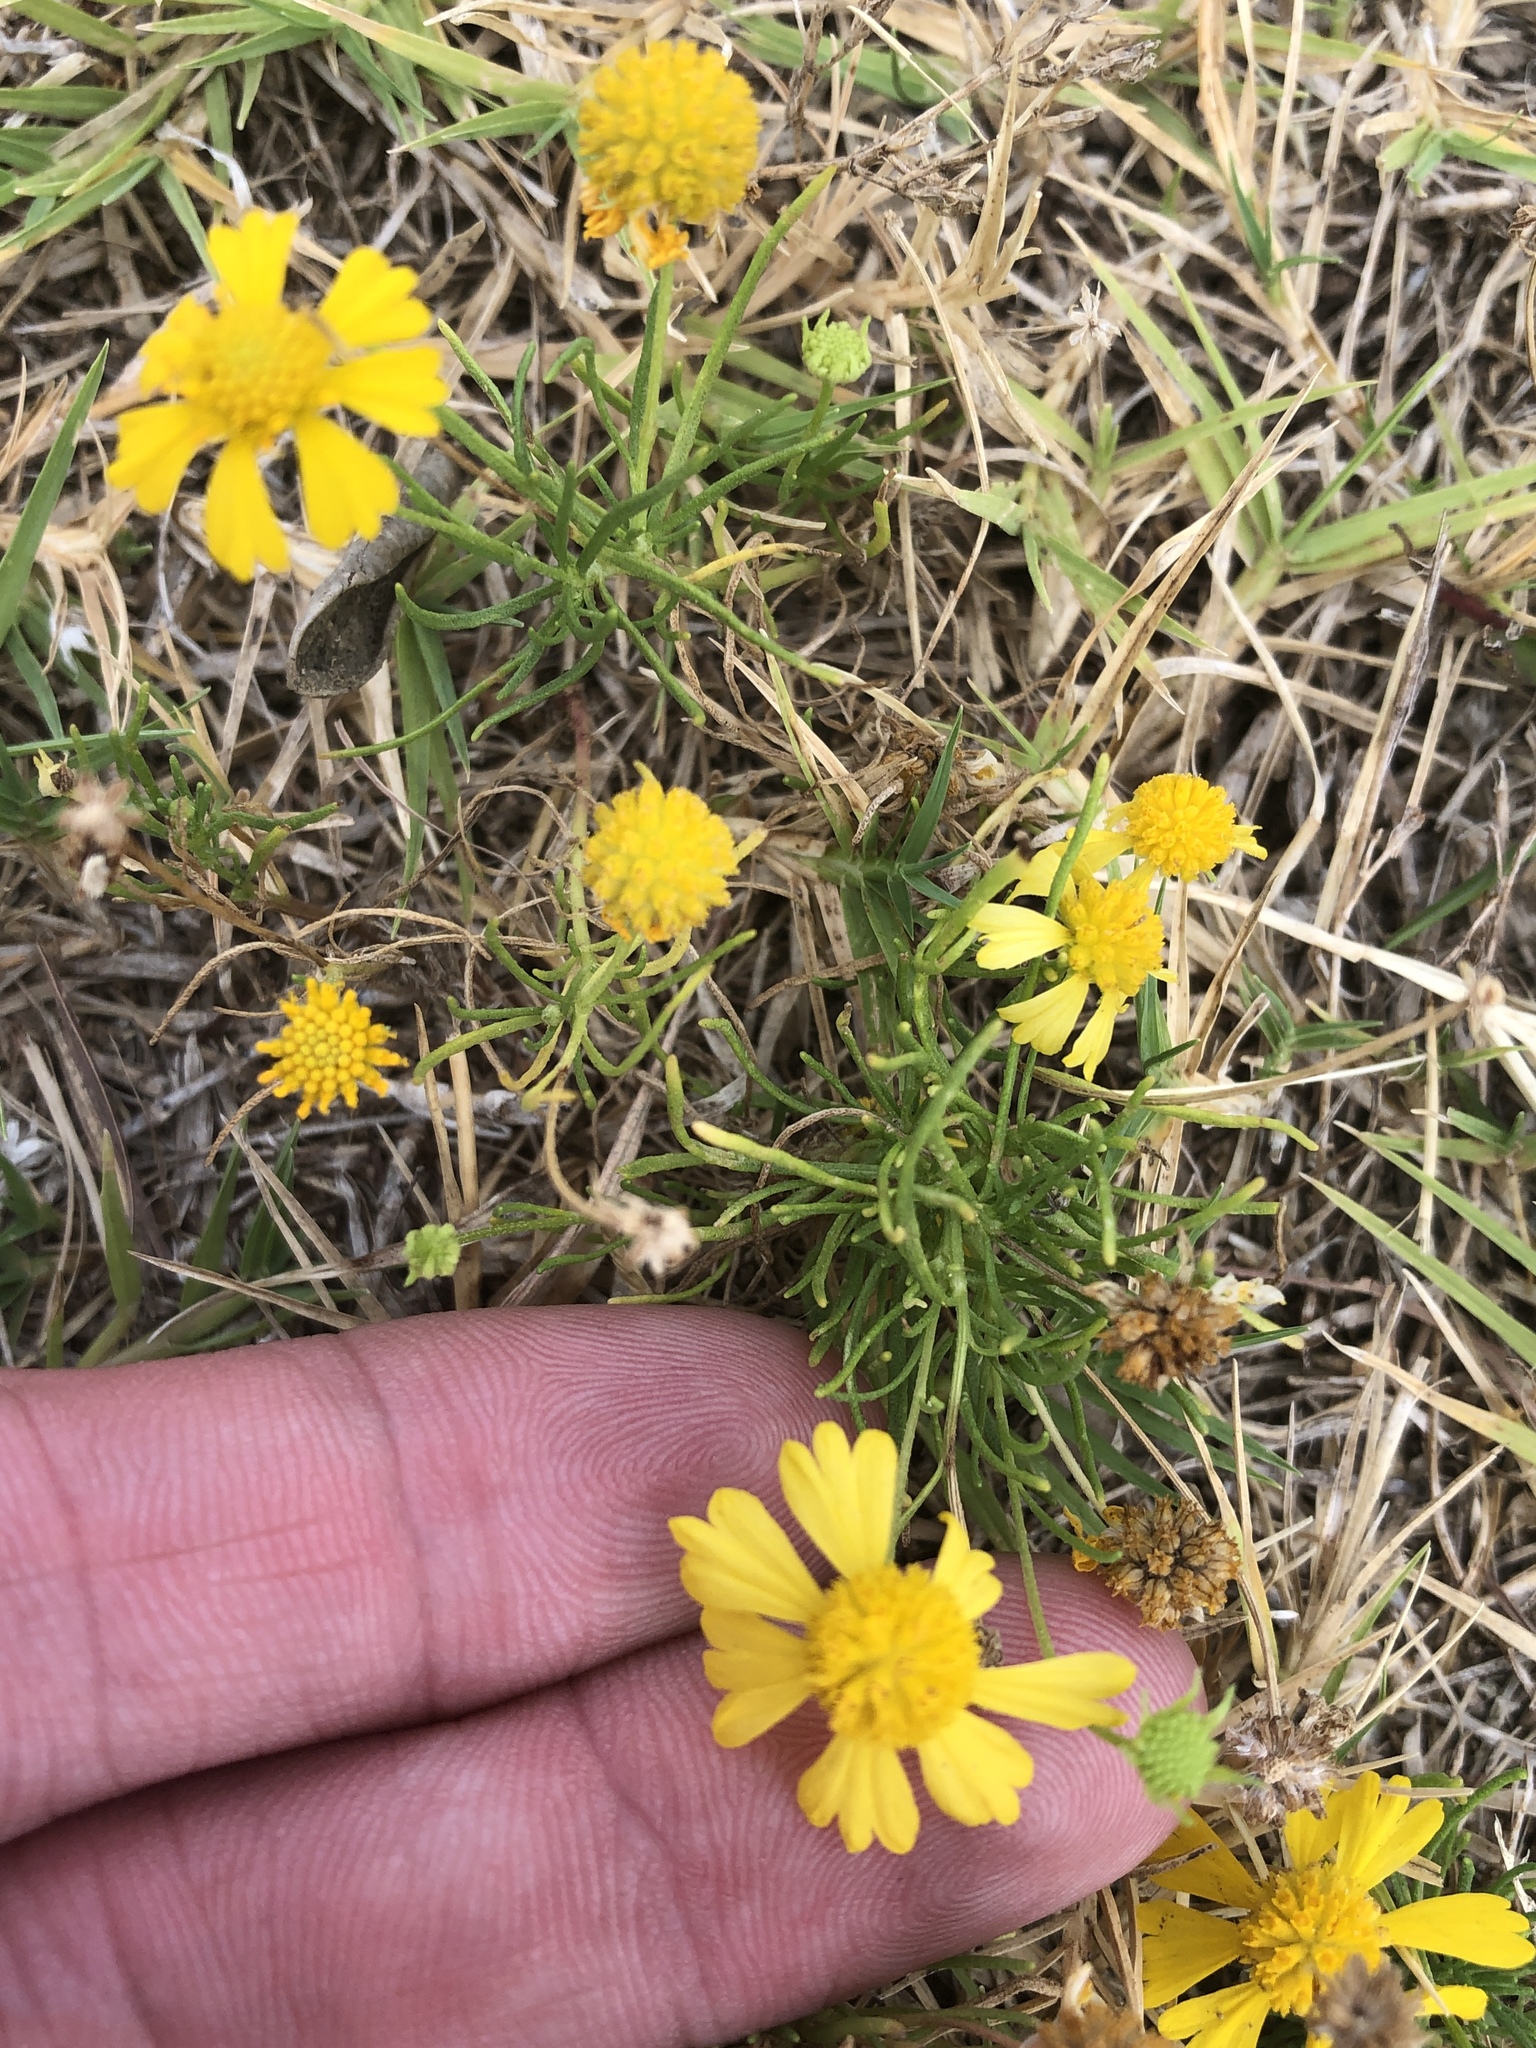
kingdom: Plantae
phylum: Tracheophyta
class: Magnoliopsida
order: Asterales
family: Asteraceae
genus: Helenium
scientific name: Helenium amarum
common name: Bitter sneezeweed
